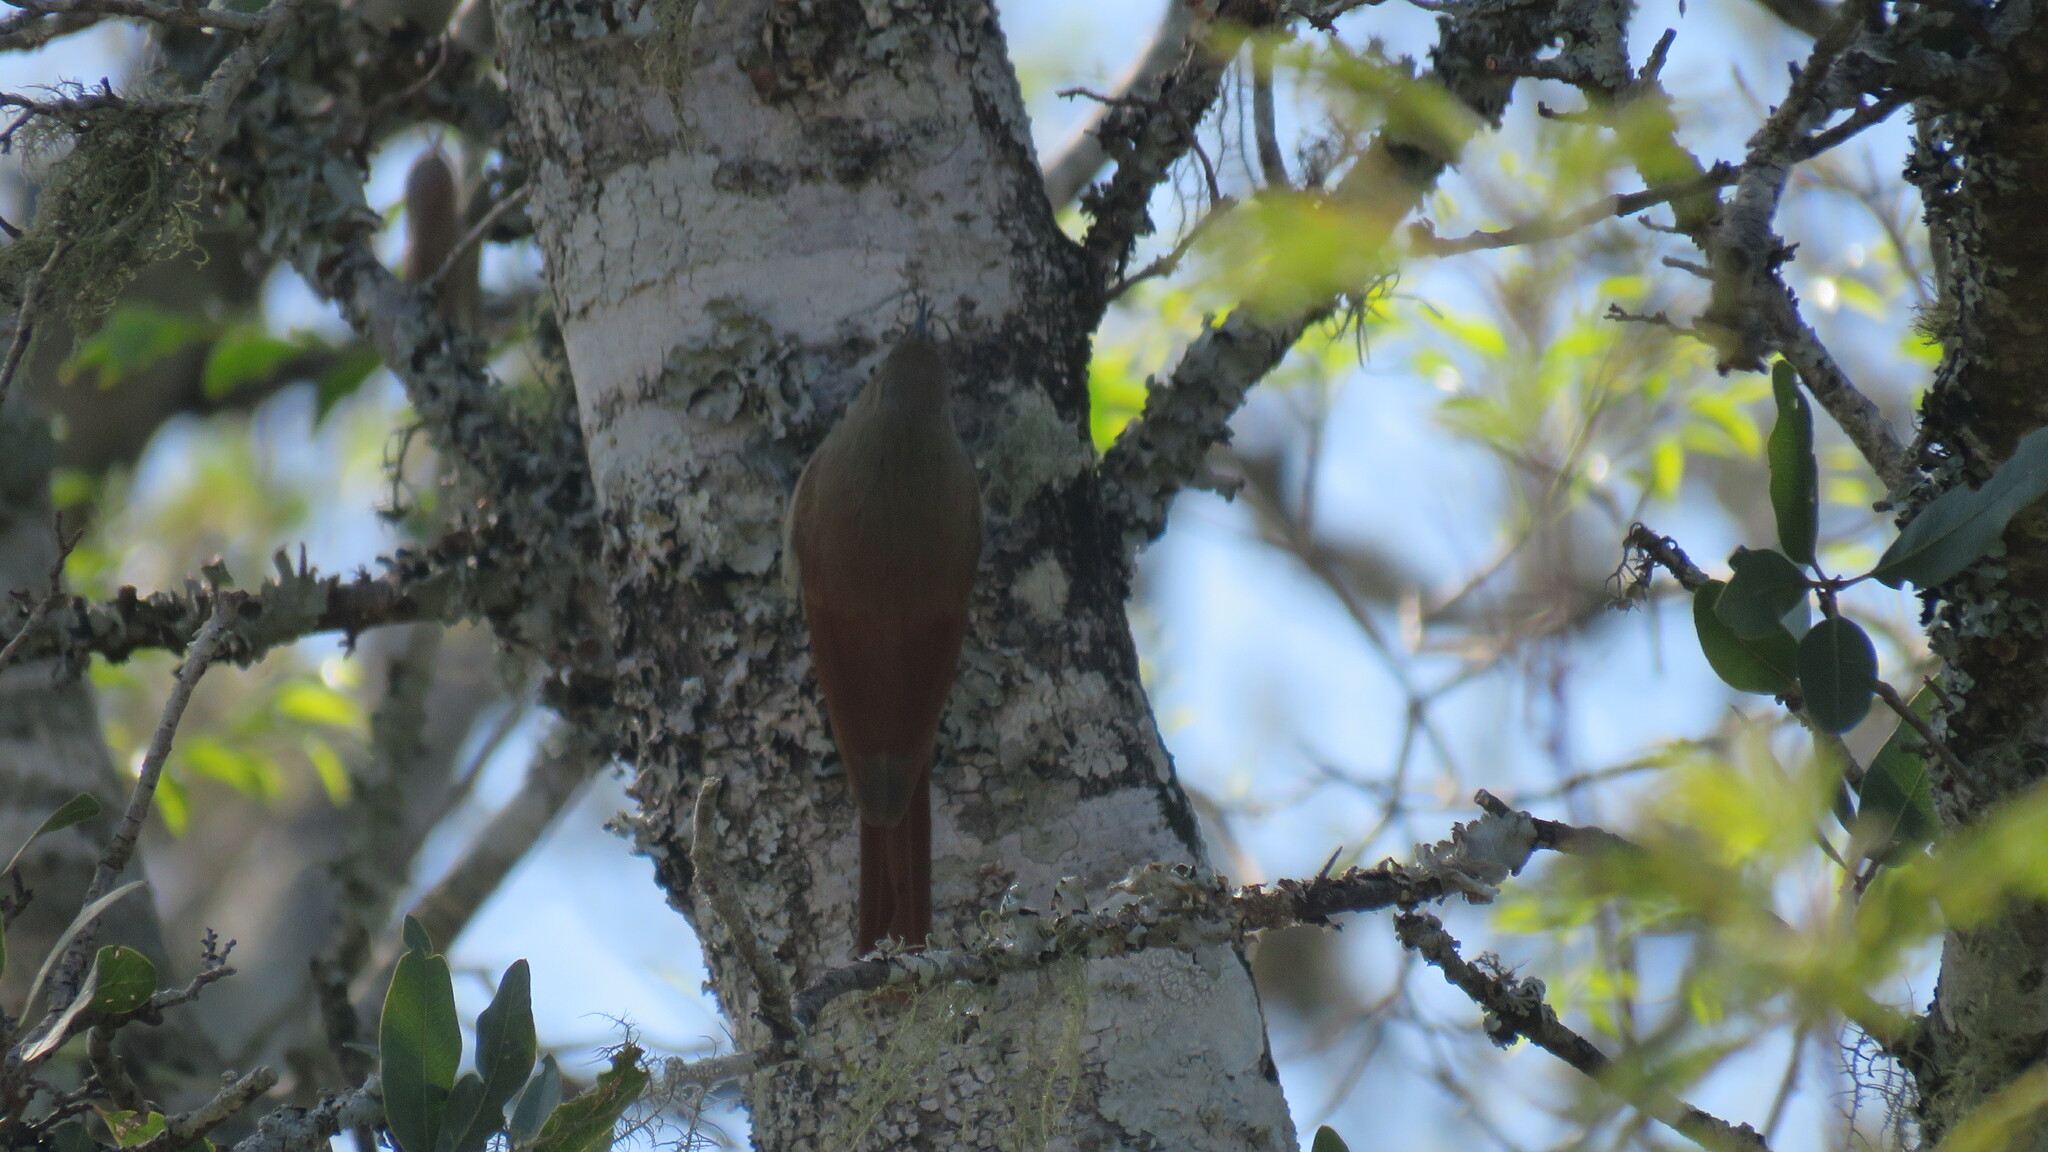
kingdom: Animalia
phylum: Chordata
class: Aves
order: Passeriformes
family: Furnariidae
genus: Sittasomus
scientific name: Sittasomus griseicapillus
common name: Olivaceous woodcreeper
